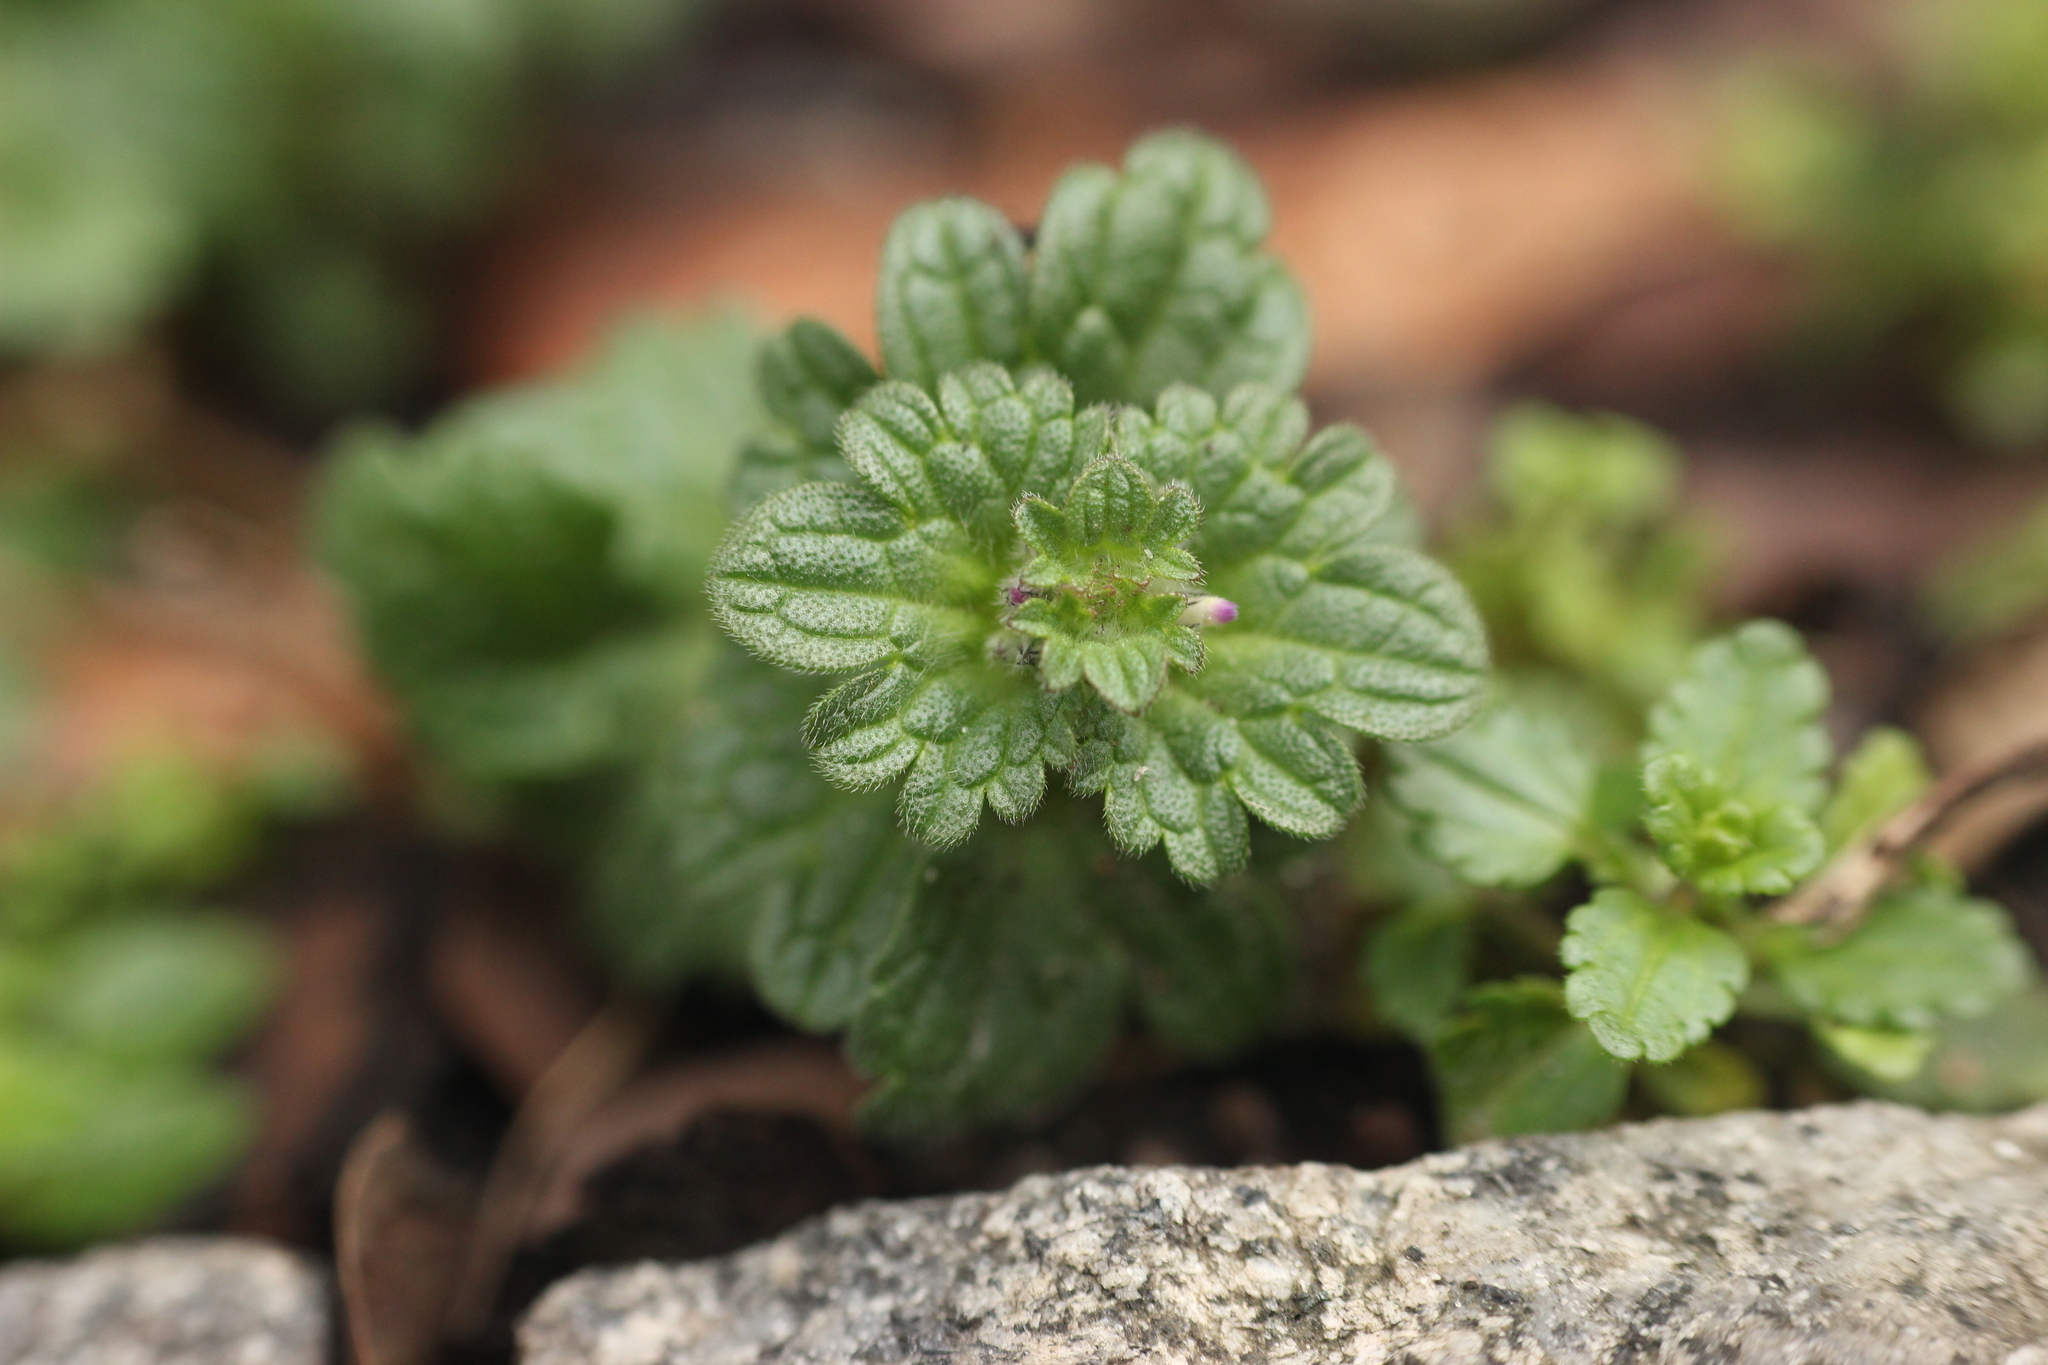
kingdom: Plantae
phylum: Tracheophyta
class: Magnoliopsida
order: Lamiales
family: Lamiaceae
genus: Lamium
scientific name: Lamium amplexicaule
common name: Henbit dead-nettle
